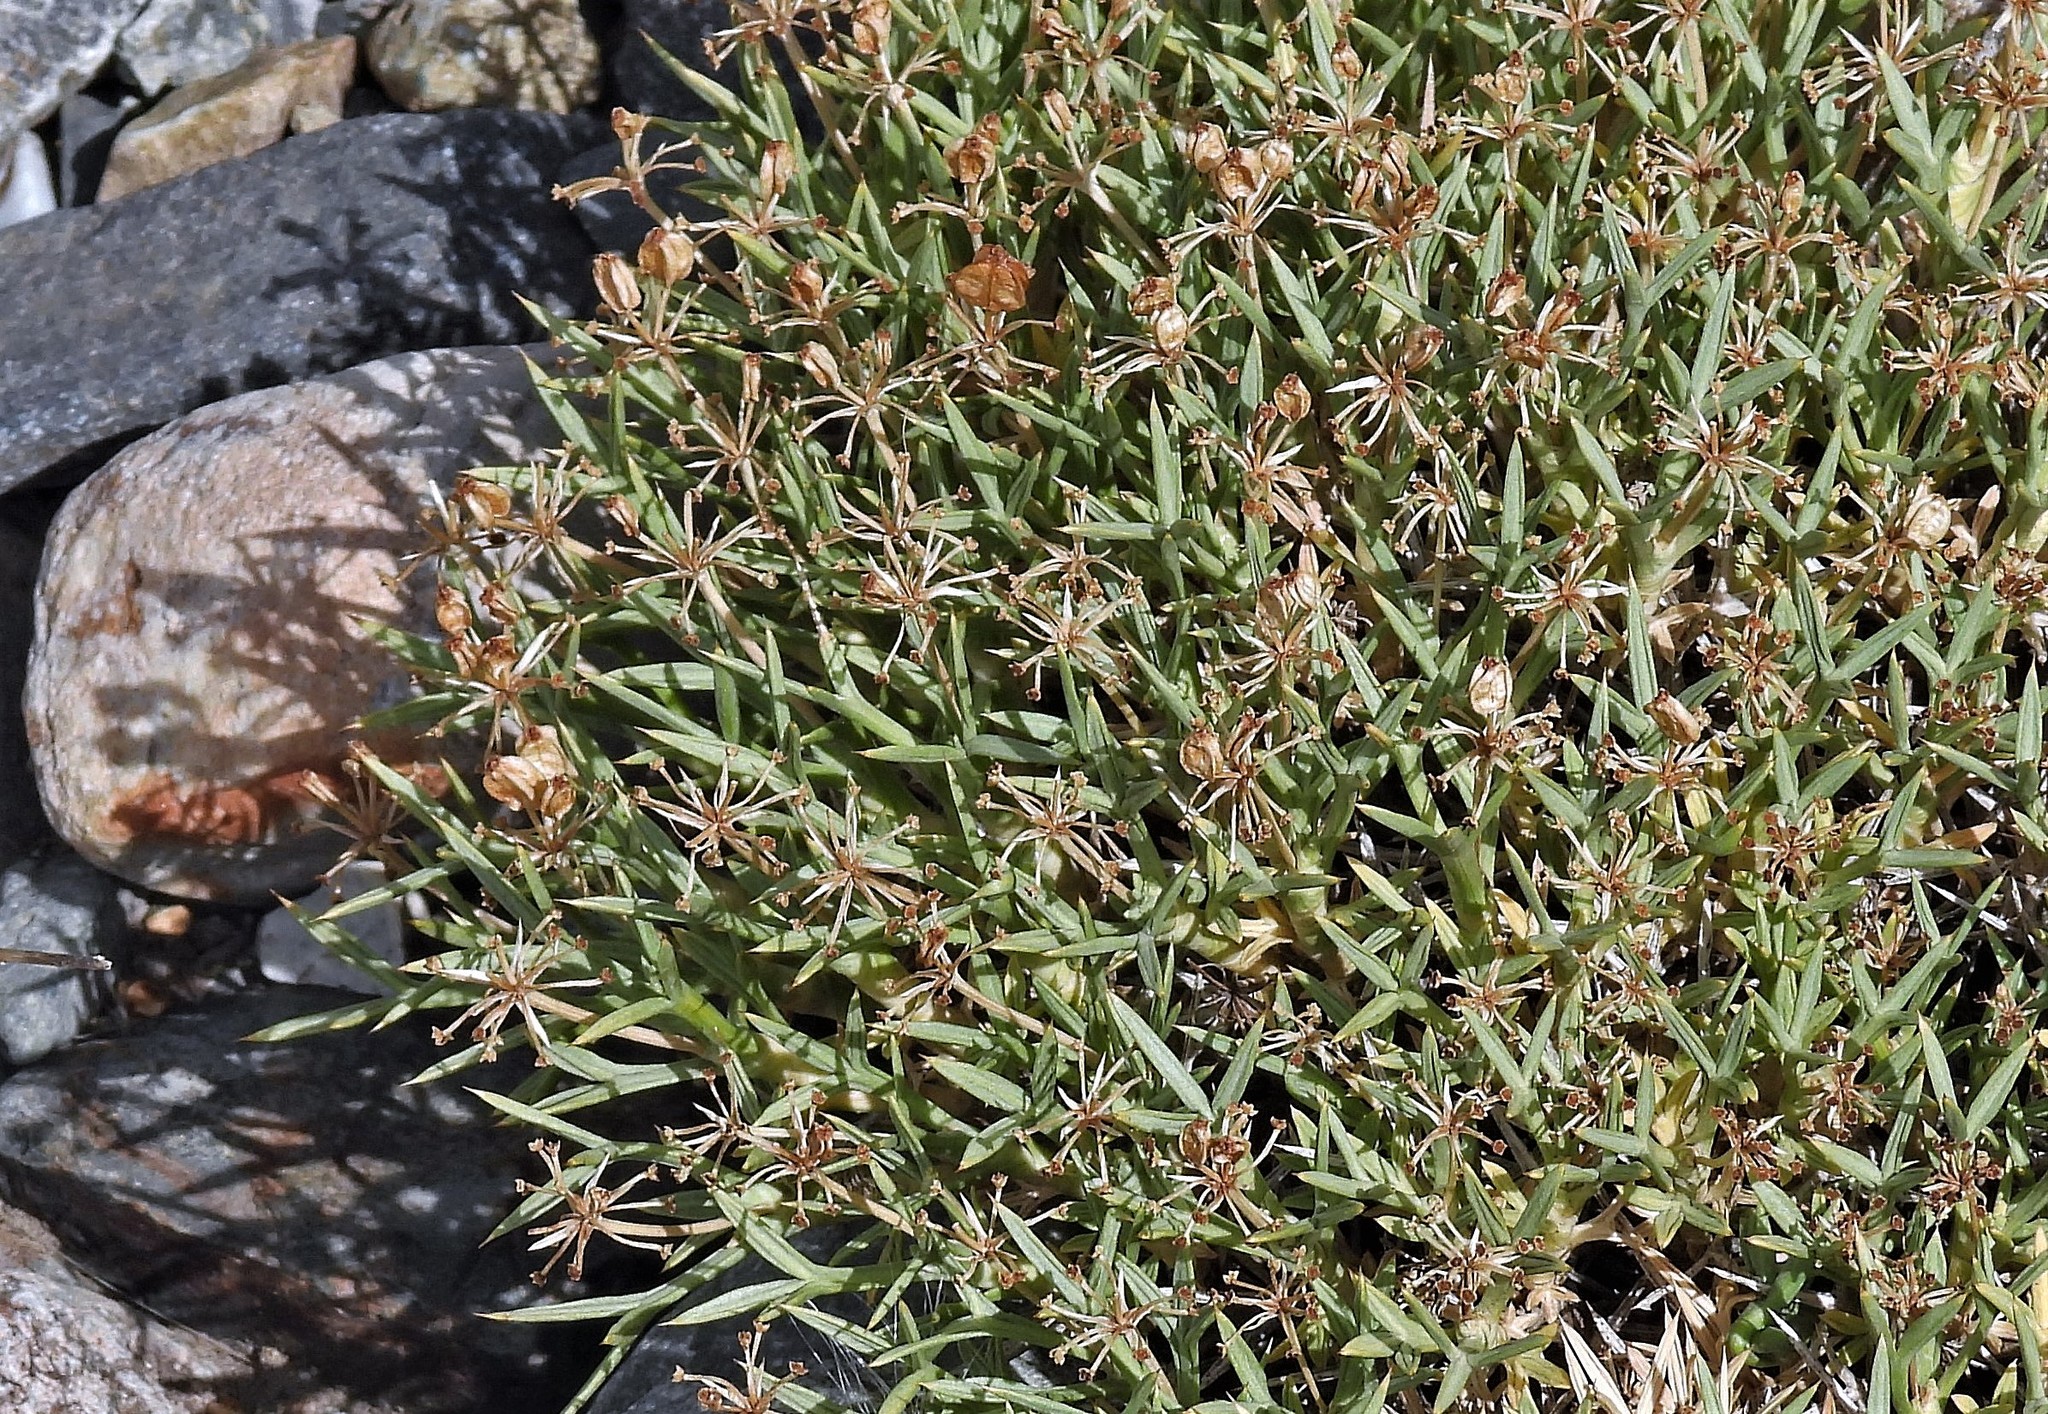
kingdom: Plantae
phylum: Tracheophyta
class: Magnoliopsida
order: Apiales
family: Apiaceae
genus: Azorella
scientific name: Azorella prolifera
